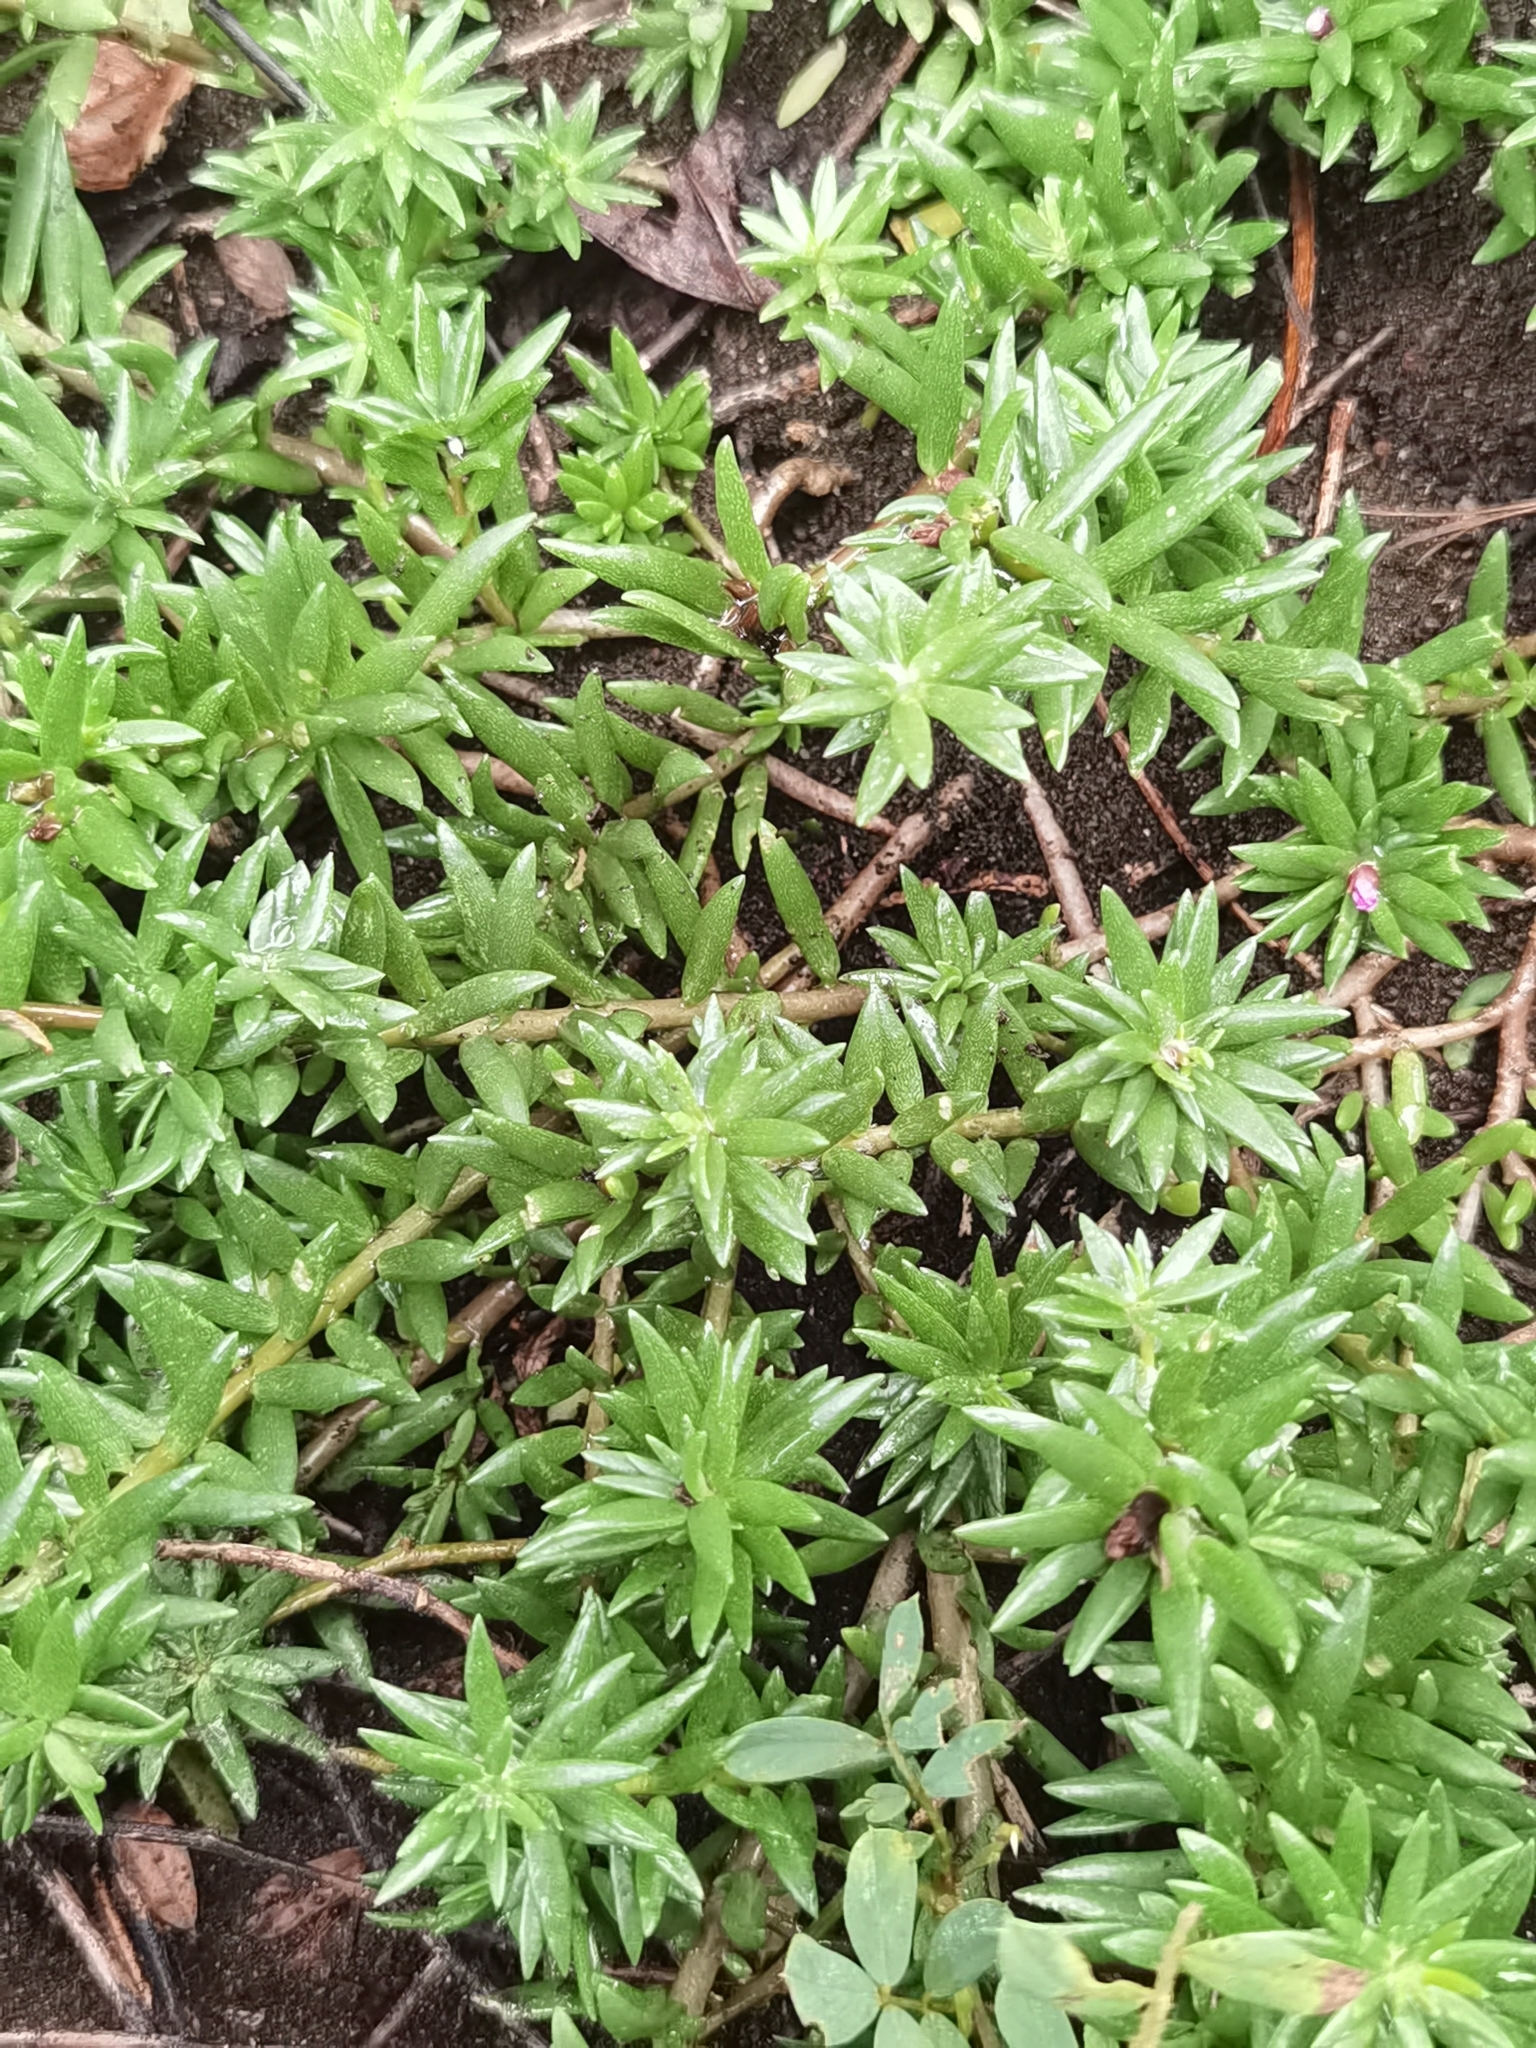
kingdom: Plantae
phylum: Tracheophyta
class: Magnoliopsida
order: Caryophyllales
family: Portulacaceae
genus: Portulaca
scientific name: Portulaca pilosa
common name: Kiss me quick
